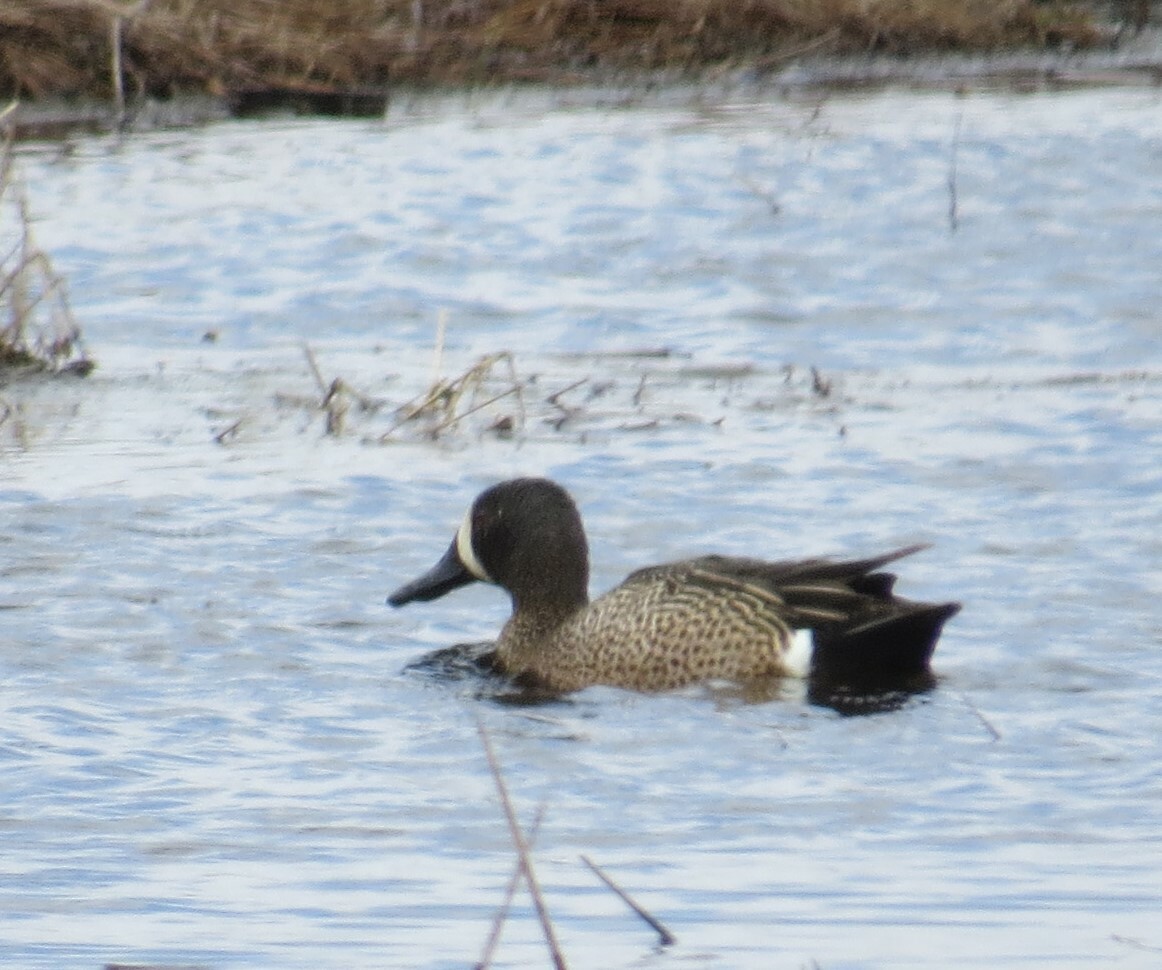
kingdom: Animalia
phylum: Chordata
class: Aves
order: Anseriformes
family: Anatidae
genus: Spatula
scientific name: Spatula discors
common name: Blue-winged teal
